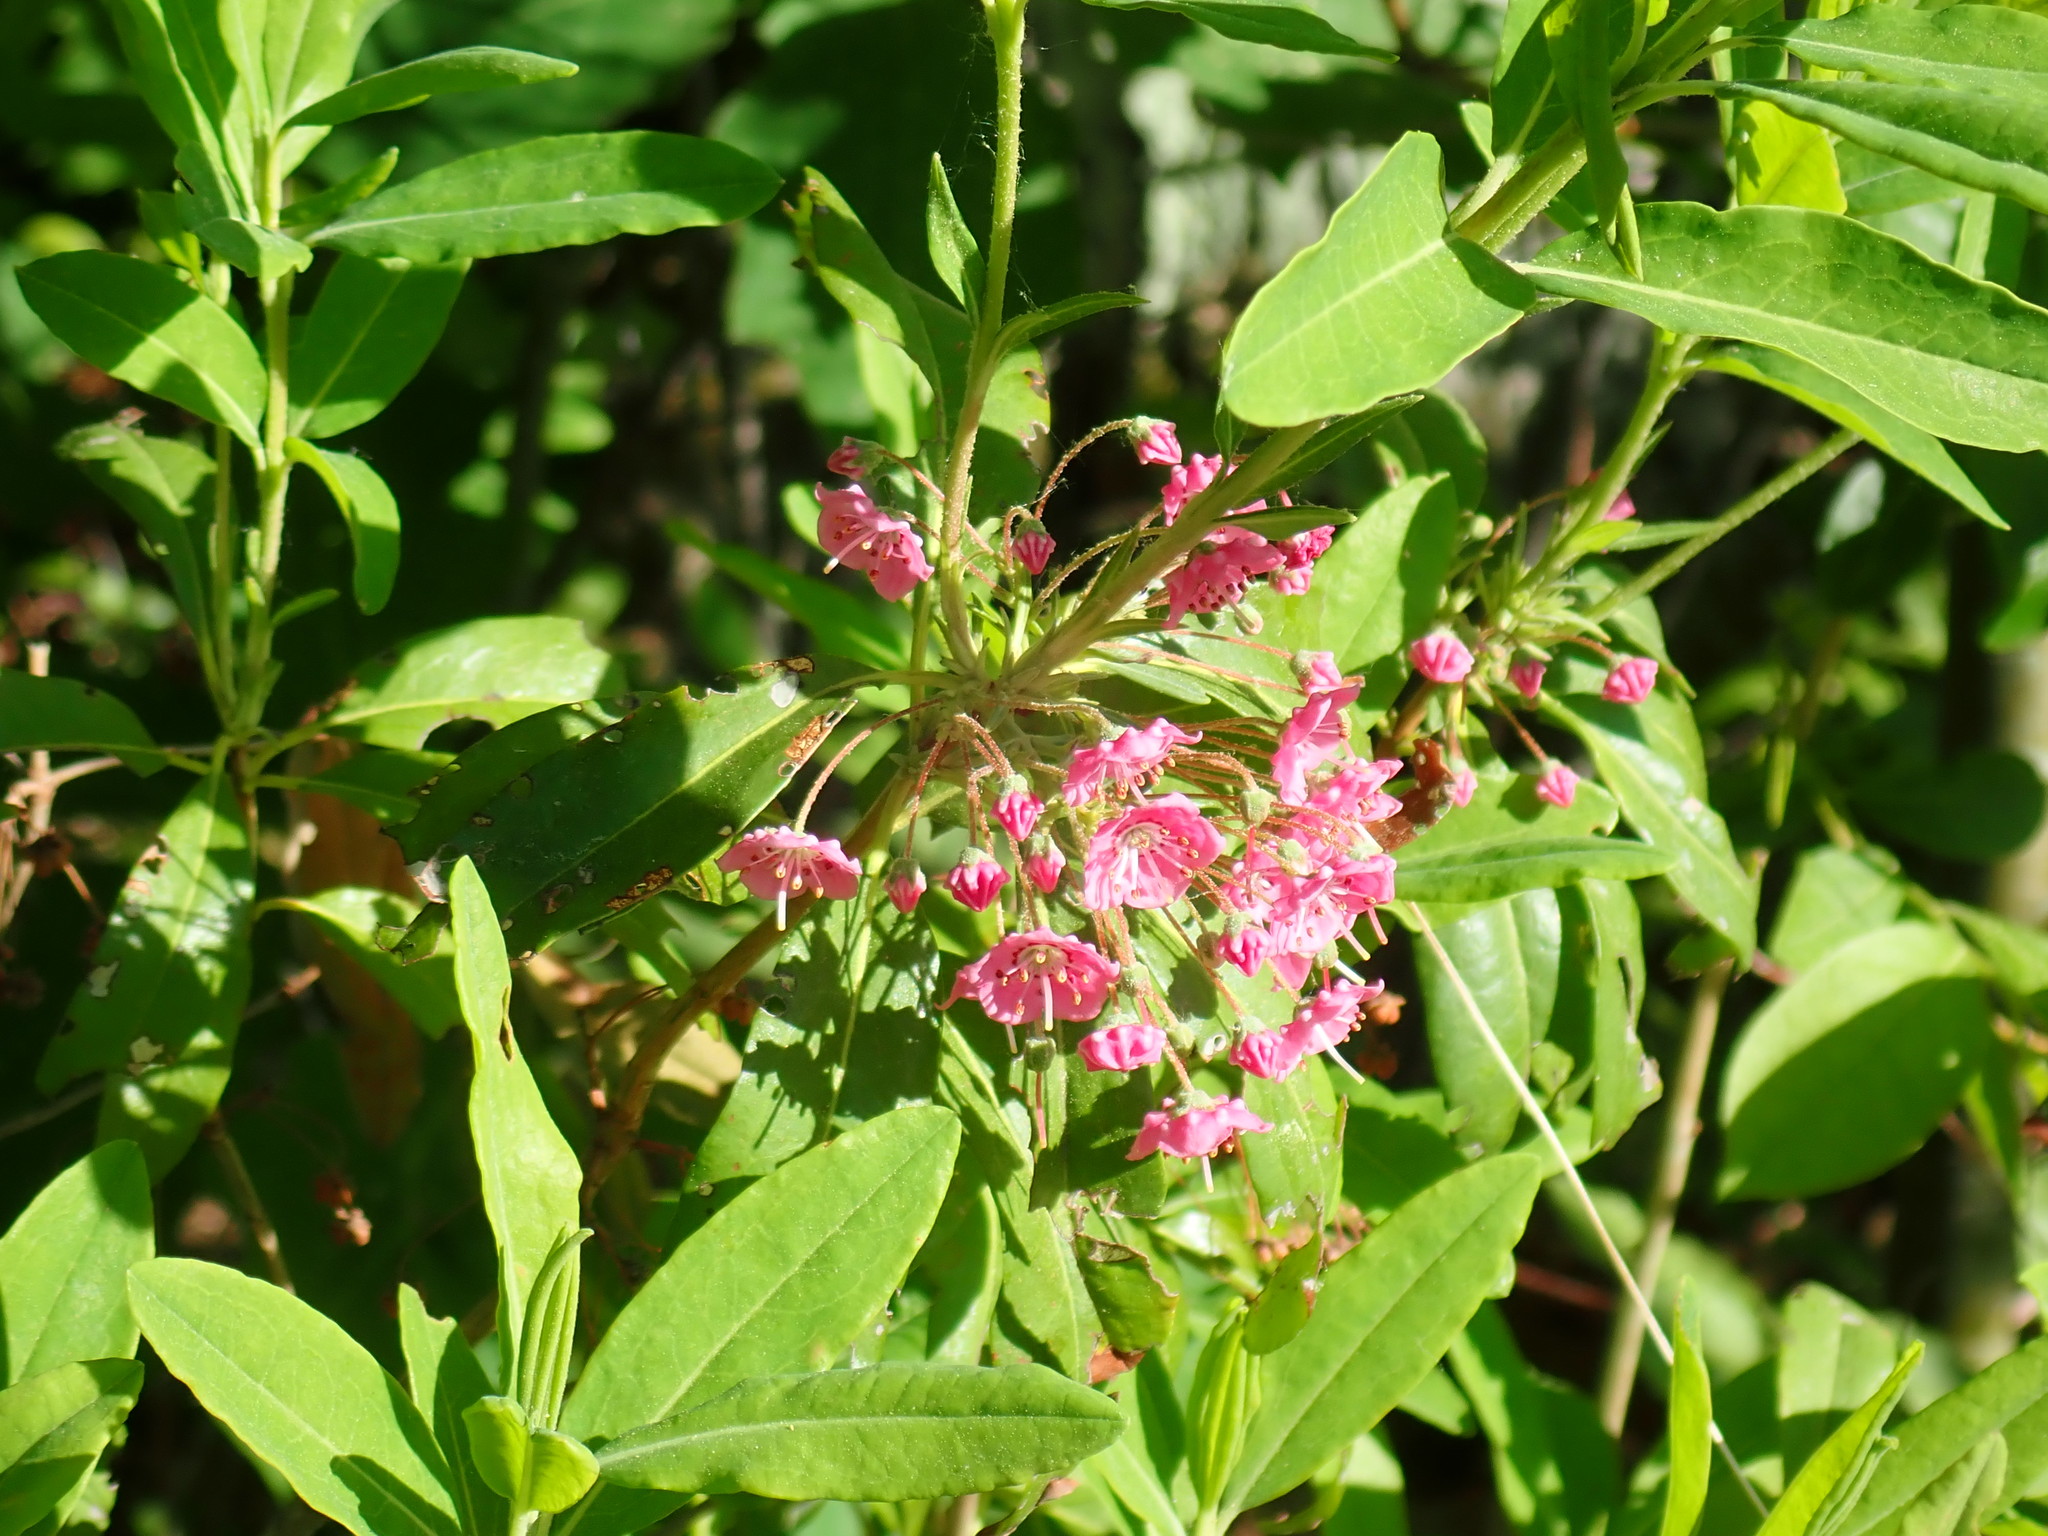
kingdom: Plantae
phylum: Tracheophyta
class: Magnoliopsida
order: Ericales
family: Ericaceae
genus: Kalmia
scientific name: Kalmia angustifolia
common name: Sheep-laurel
